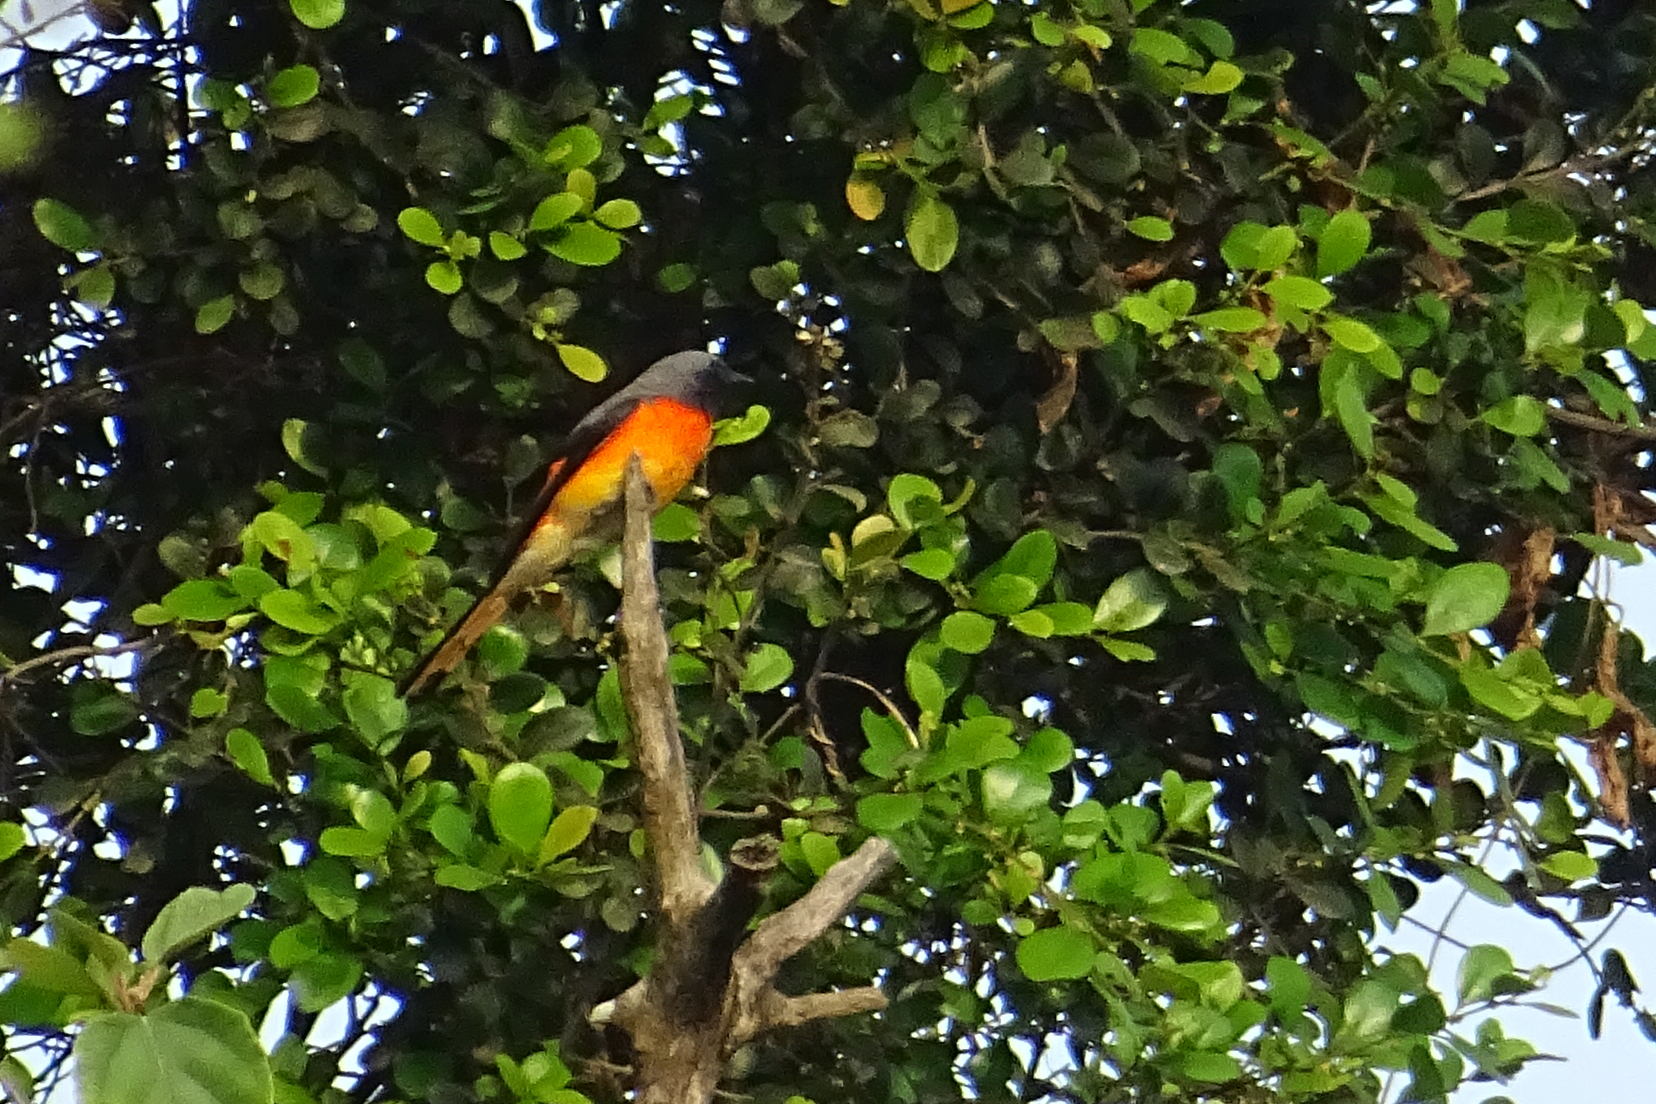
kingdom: Animalia
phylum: Chordata
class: Aves
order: Passeriformes
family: Campephagidae
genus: Pericrocotus
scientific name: Pericrocotus cinnamomeus
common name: Small minivet
